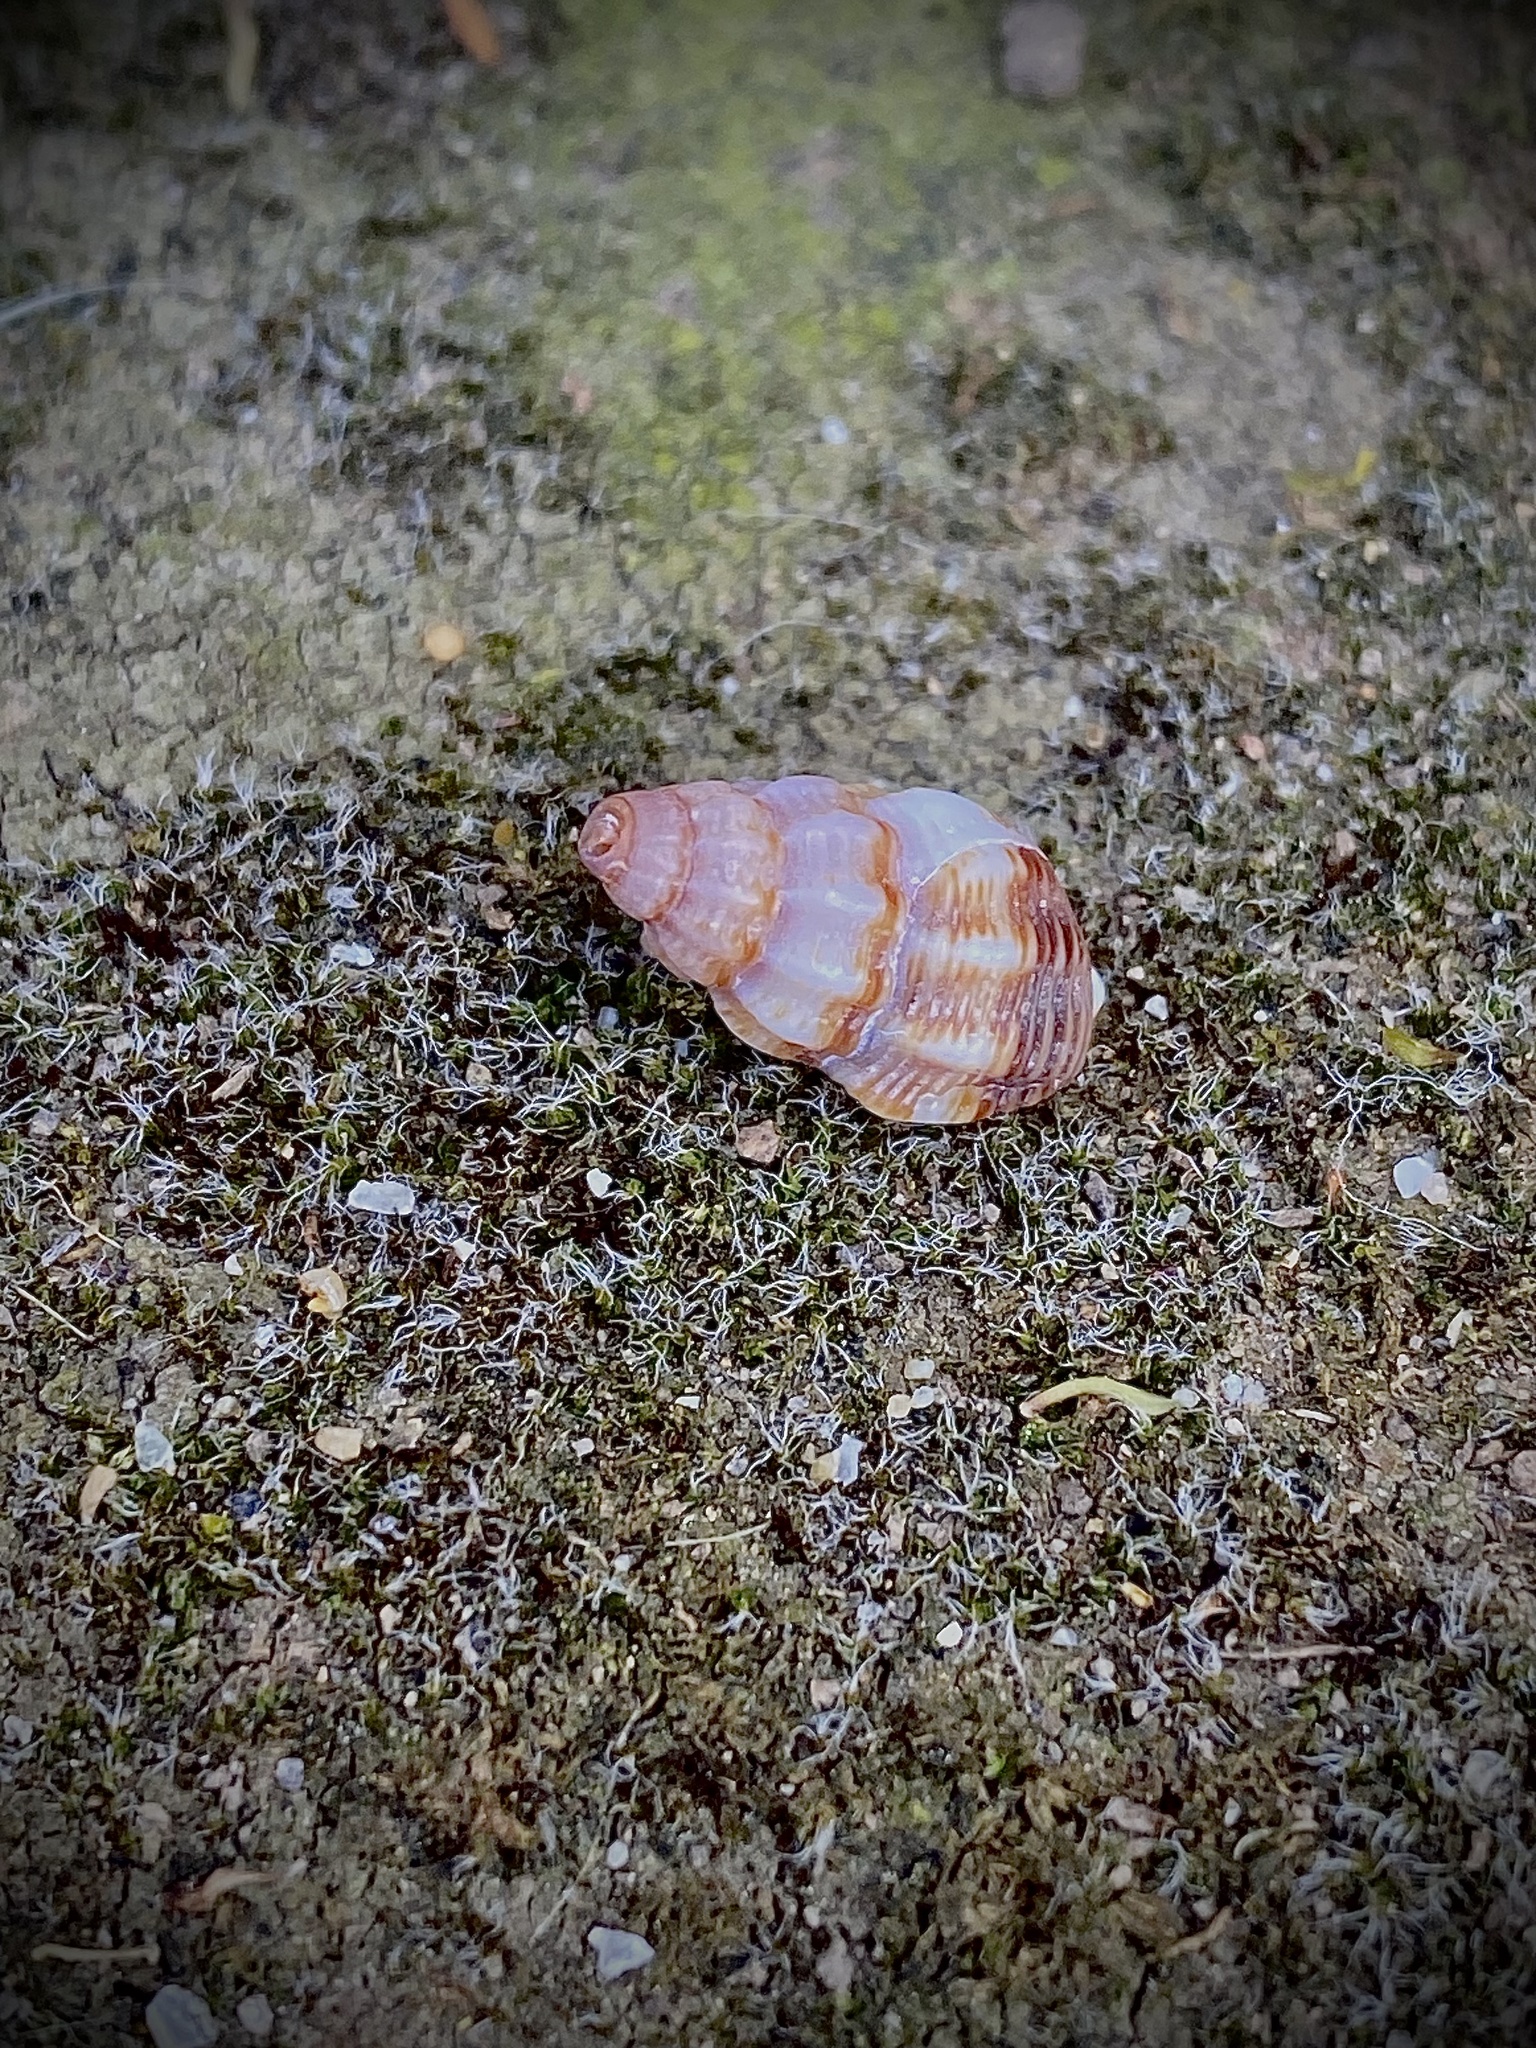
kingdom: Animalia
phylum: Mollusca
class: Gastropoda
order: Neogastropoda
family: Nassariidae
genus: Nassarius
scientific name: Nassarius mendicus
